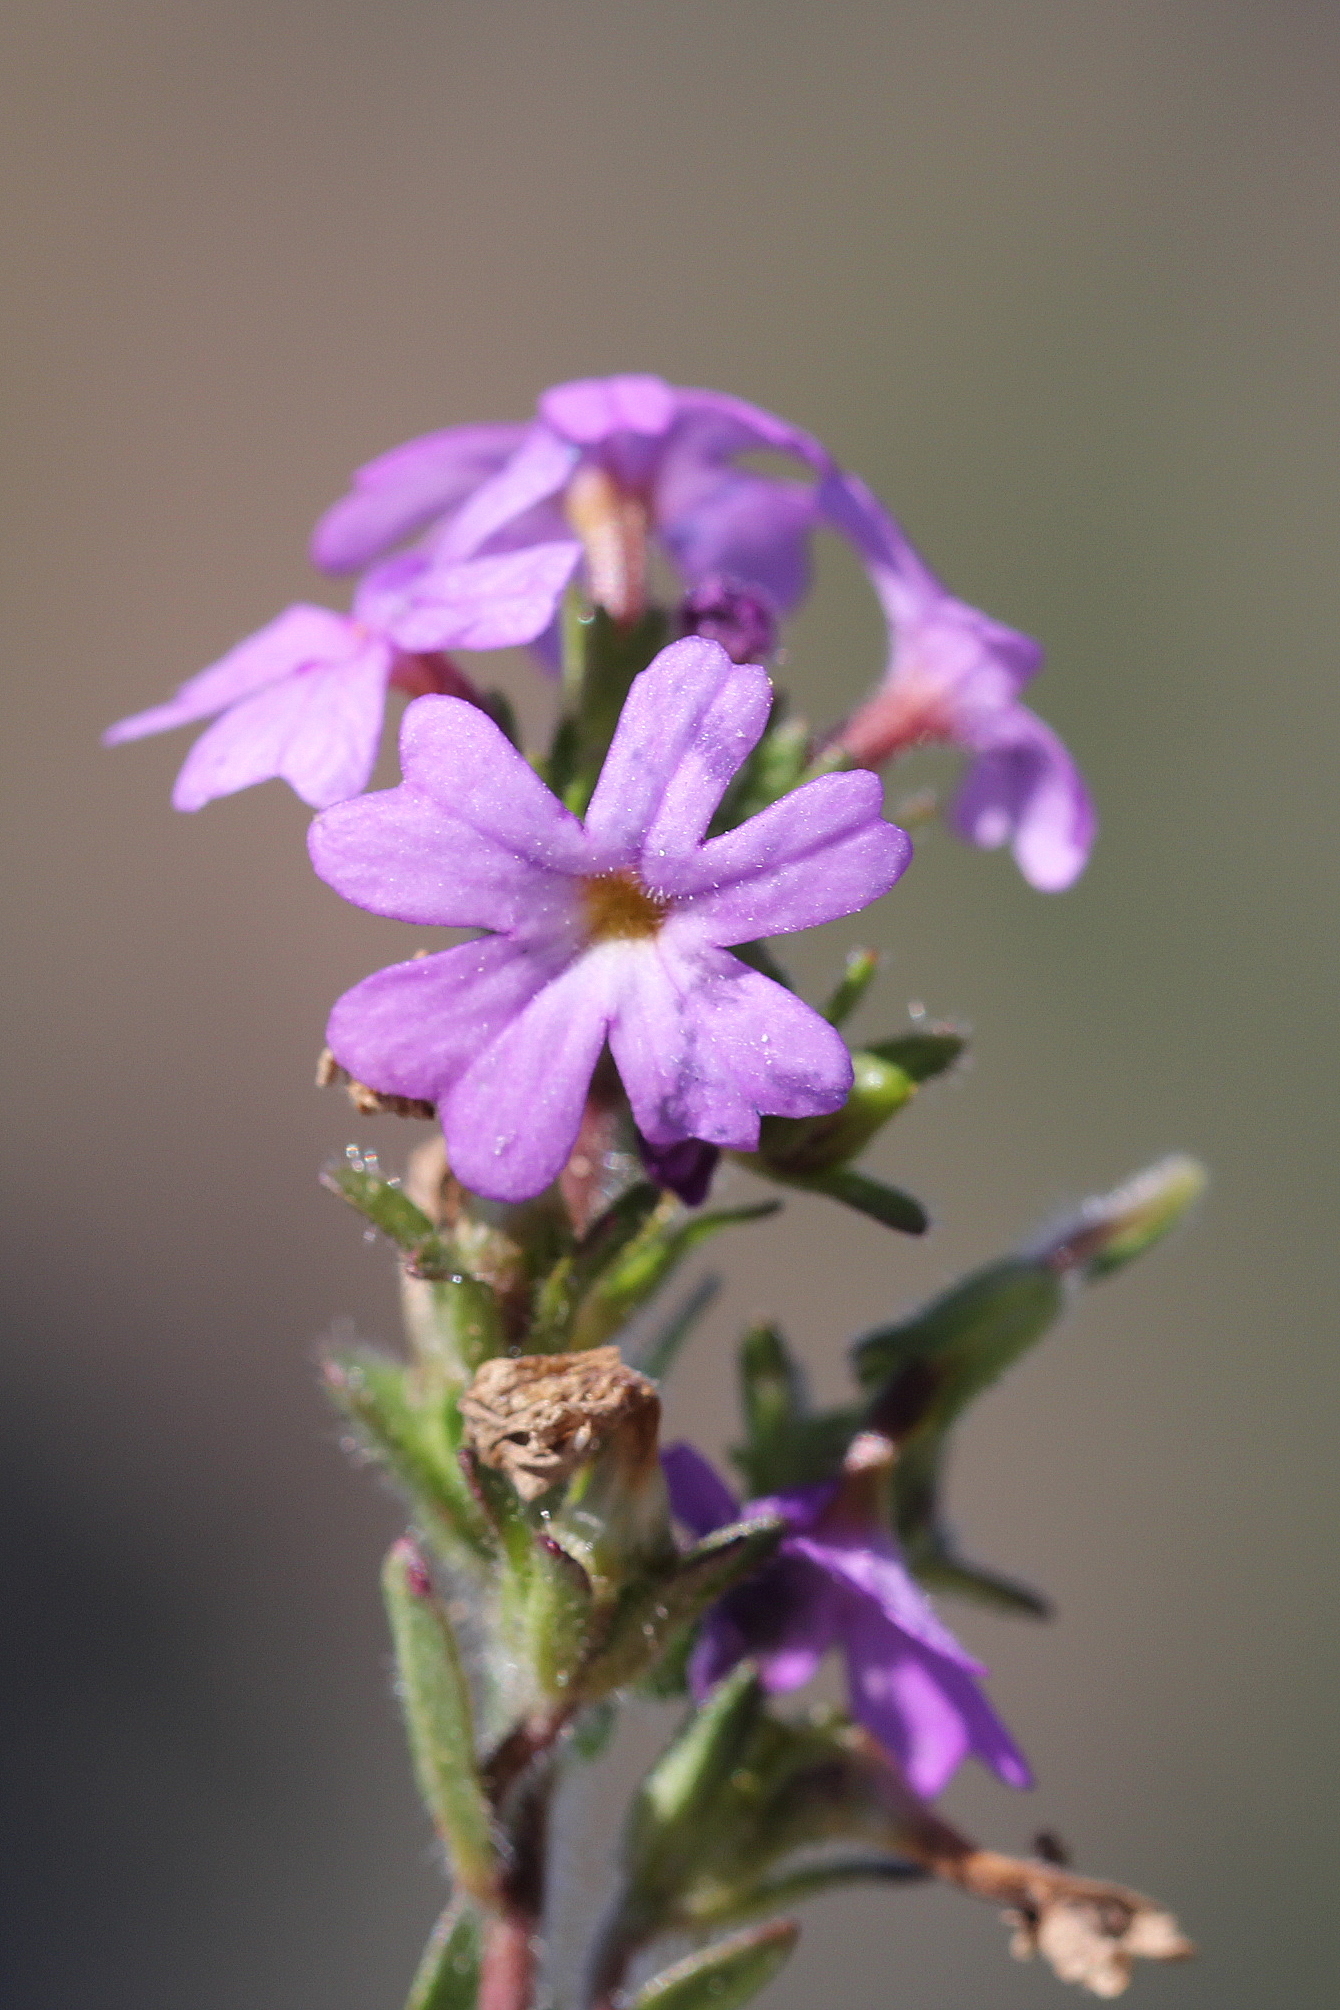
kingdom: Plantae
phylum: Tracheophyta
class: Magnoliopsida
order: Lamiales
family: Plantaginaceae
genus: Erinus
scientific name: Erinus alpinus
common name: Fairy foxglove
